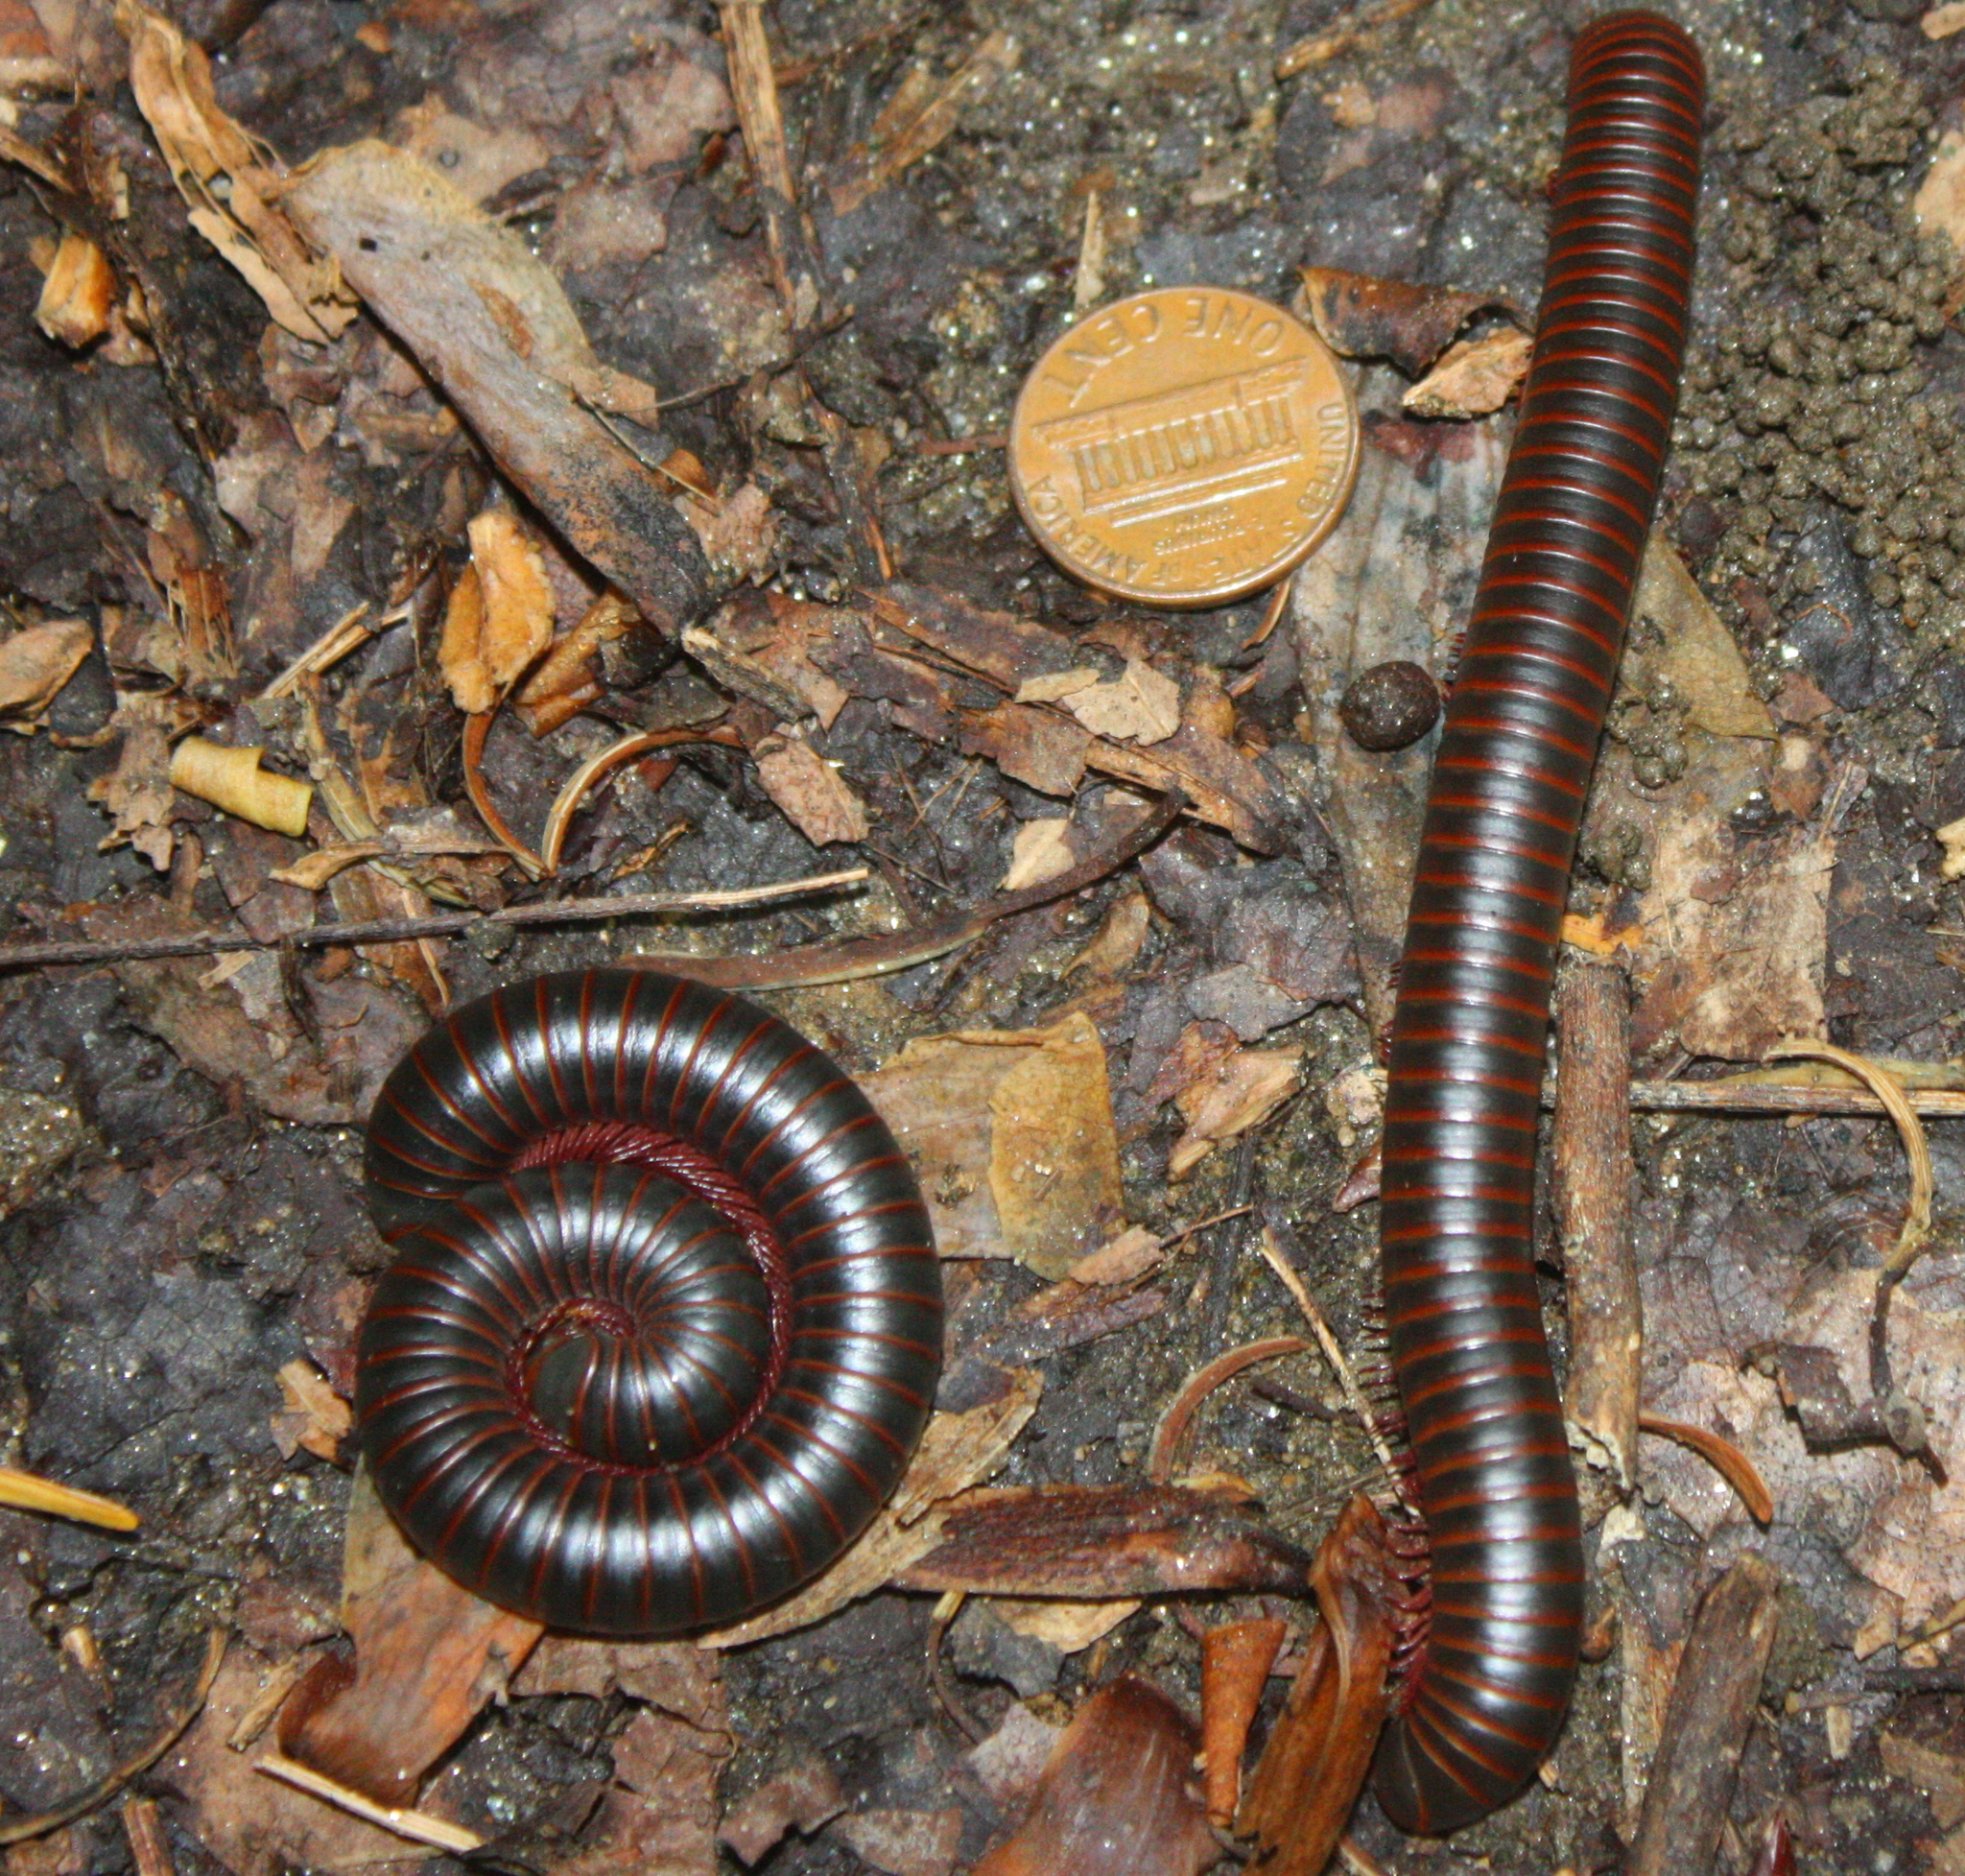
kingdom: Animalia
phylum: Arthropoda
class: Diplopoda
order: Spirobolida
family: Spirobolidae
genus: Narceus
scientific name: Narceus
